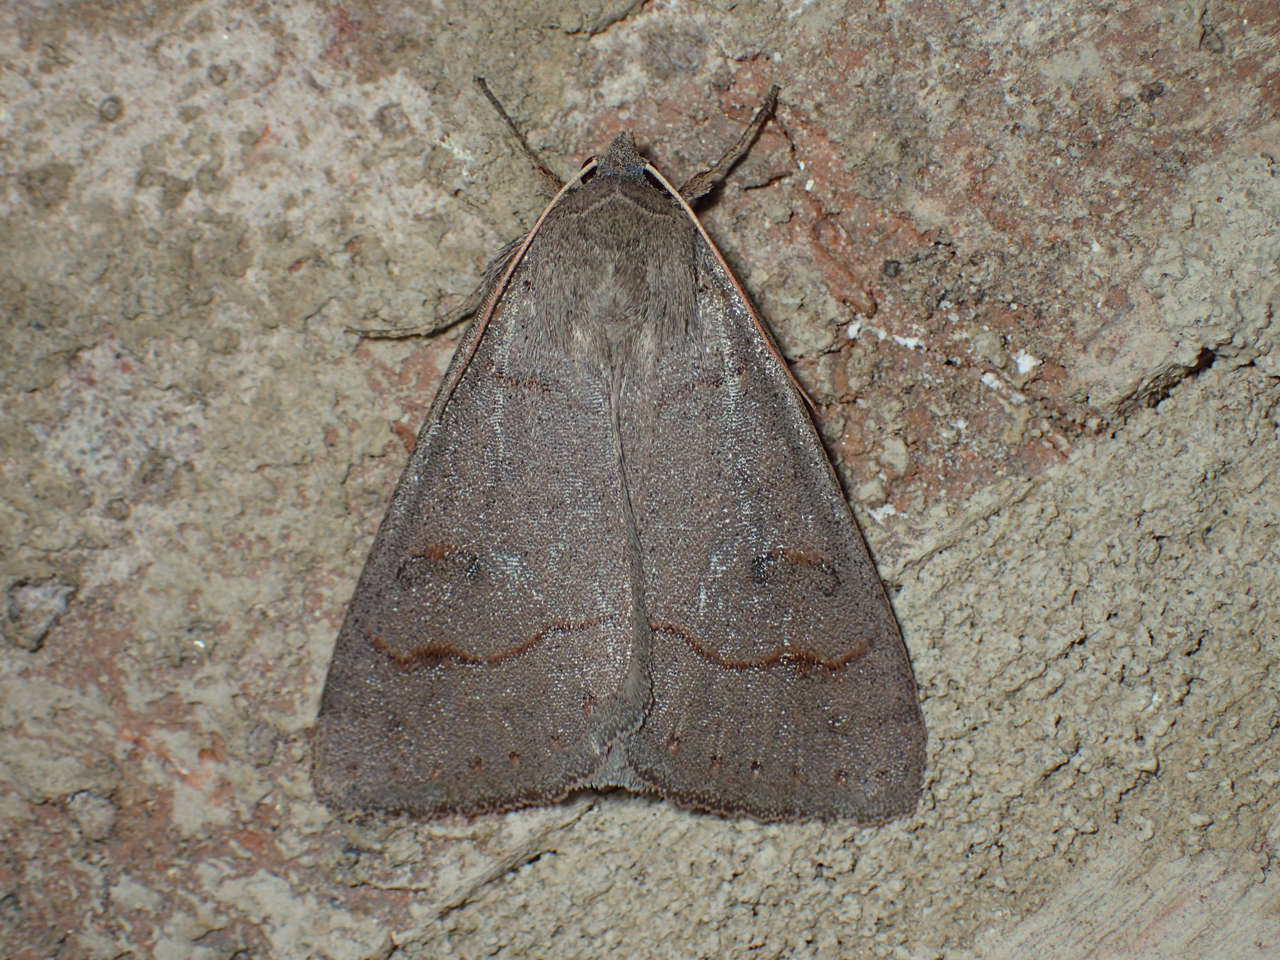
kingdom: Animalia
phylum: Arthropoda
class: Insecta
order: Lepidoptera
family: Erebidae
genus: Phoberia
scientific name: Phoberia atomaris
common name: Common oak moth
